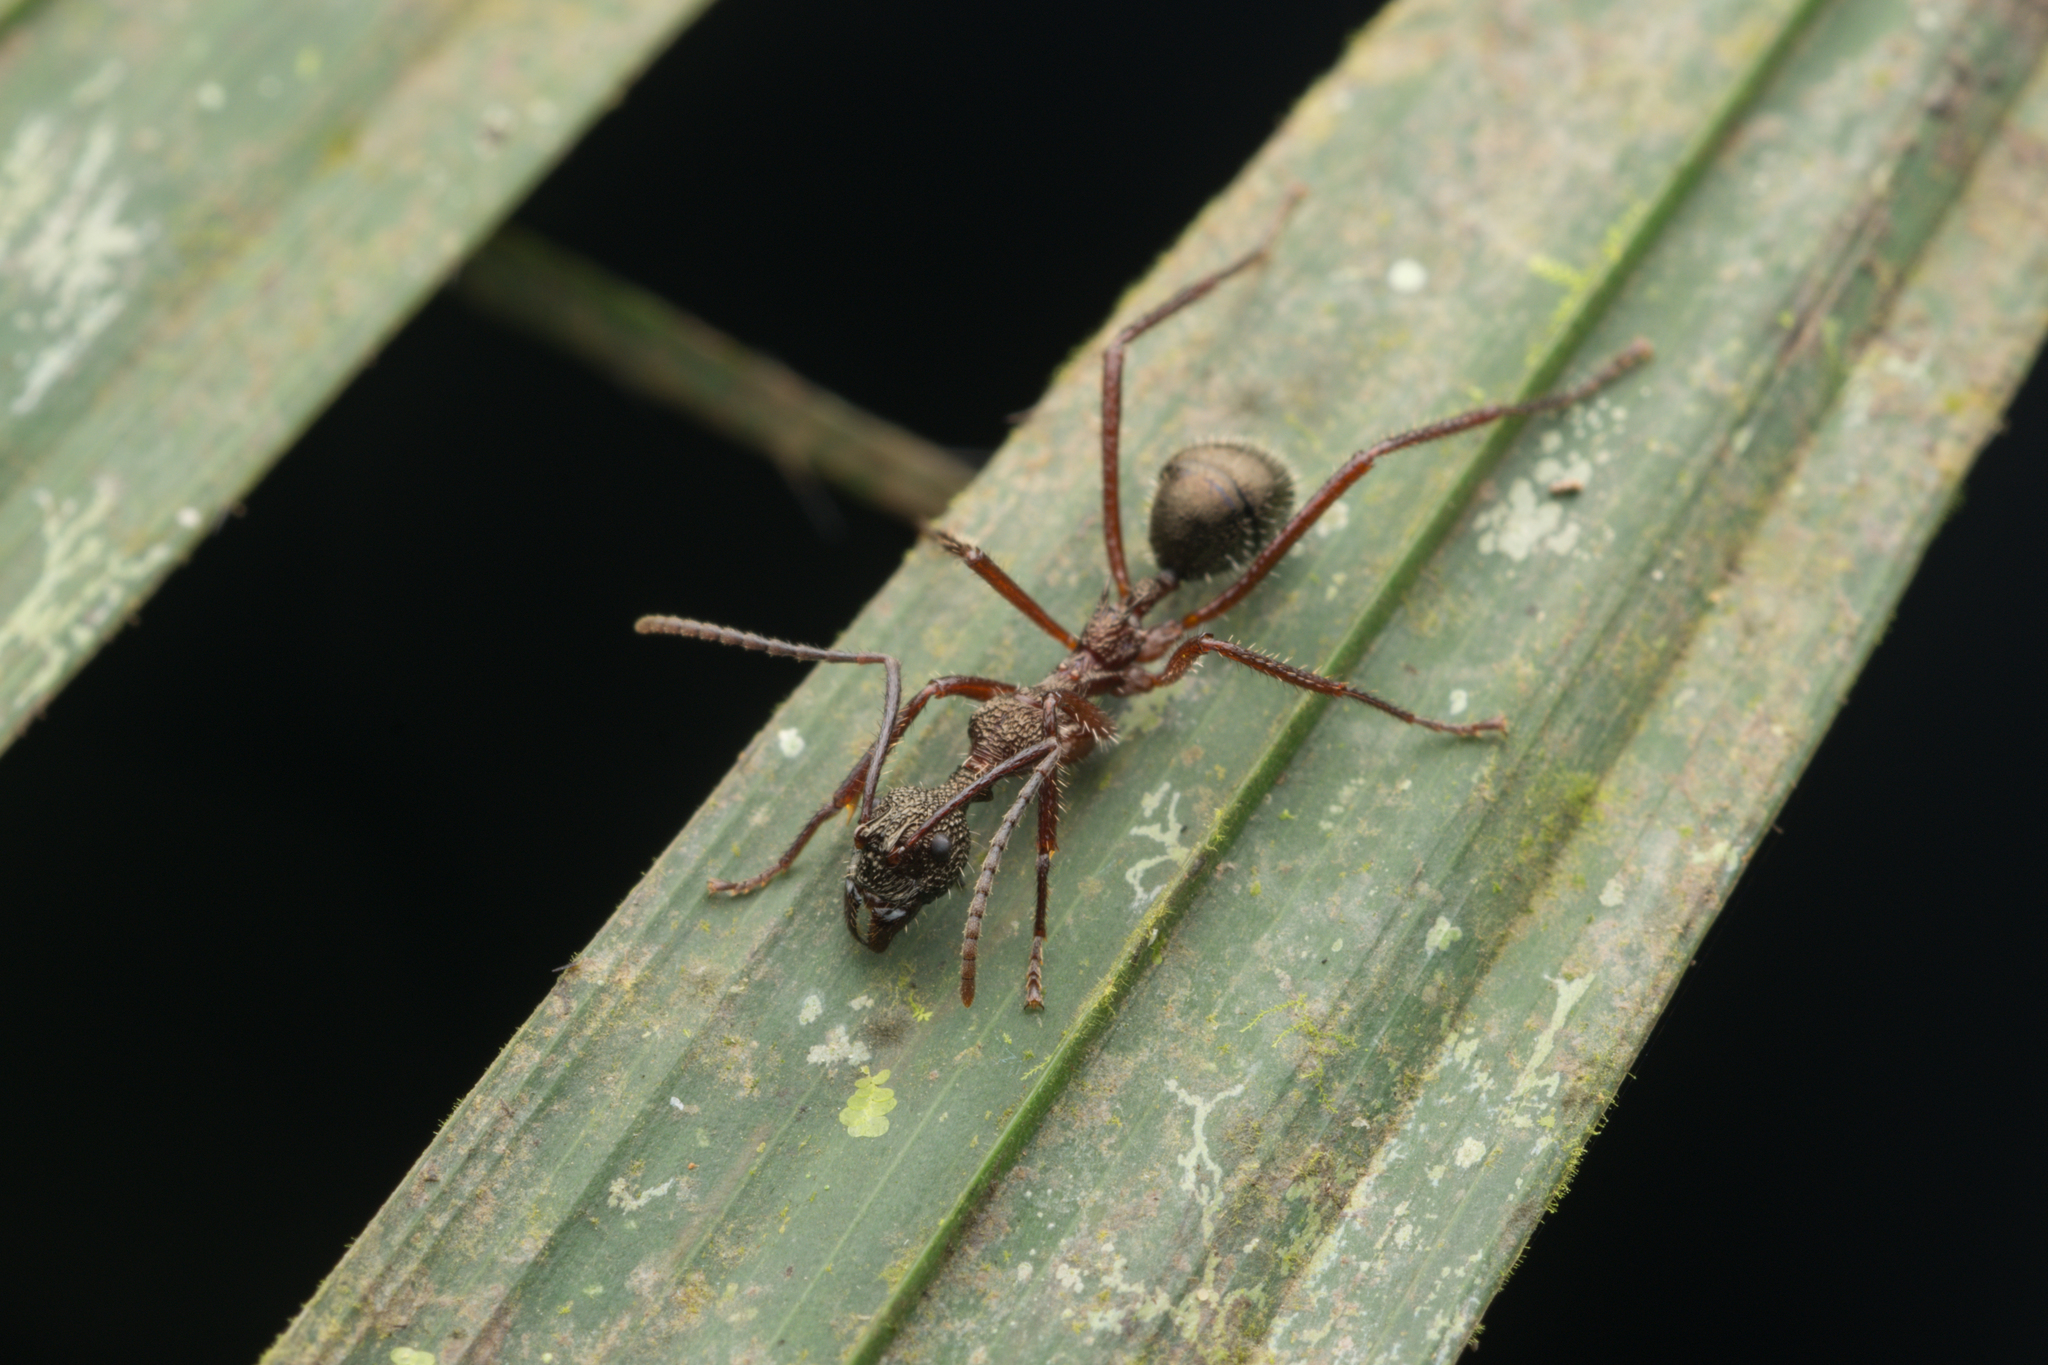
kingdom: Animalia
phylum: Arthropoda
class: Insecta
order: Hymenoptera
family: Formicidae
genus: Dolichoderus
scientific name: Dolichoderus longicollis
